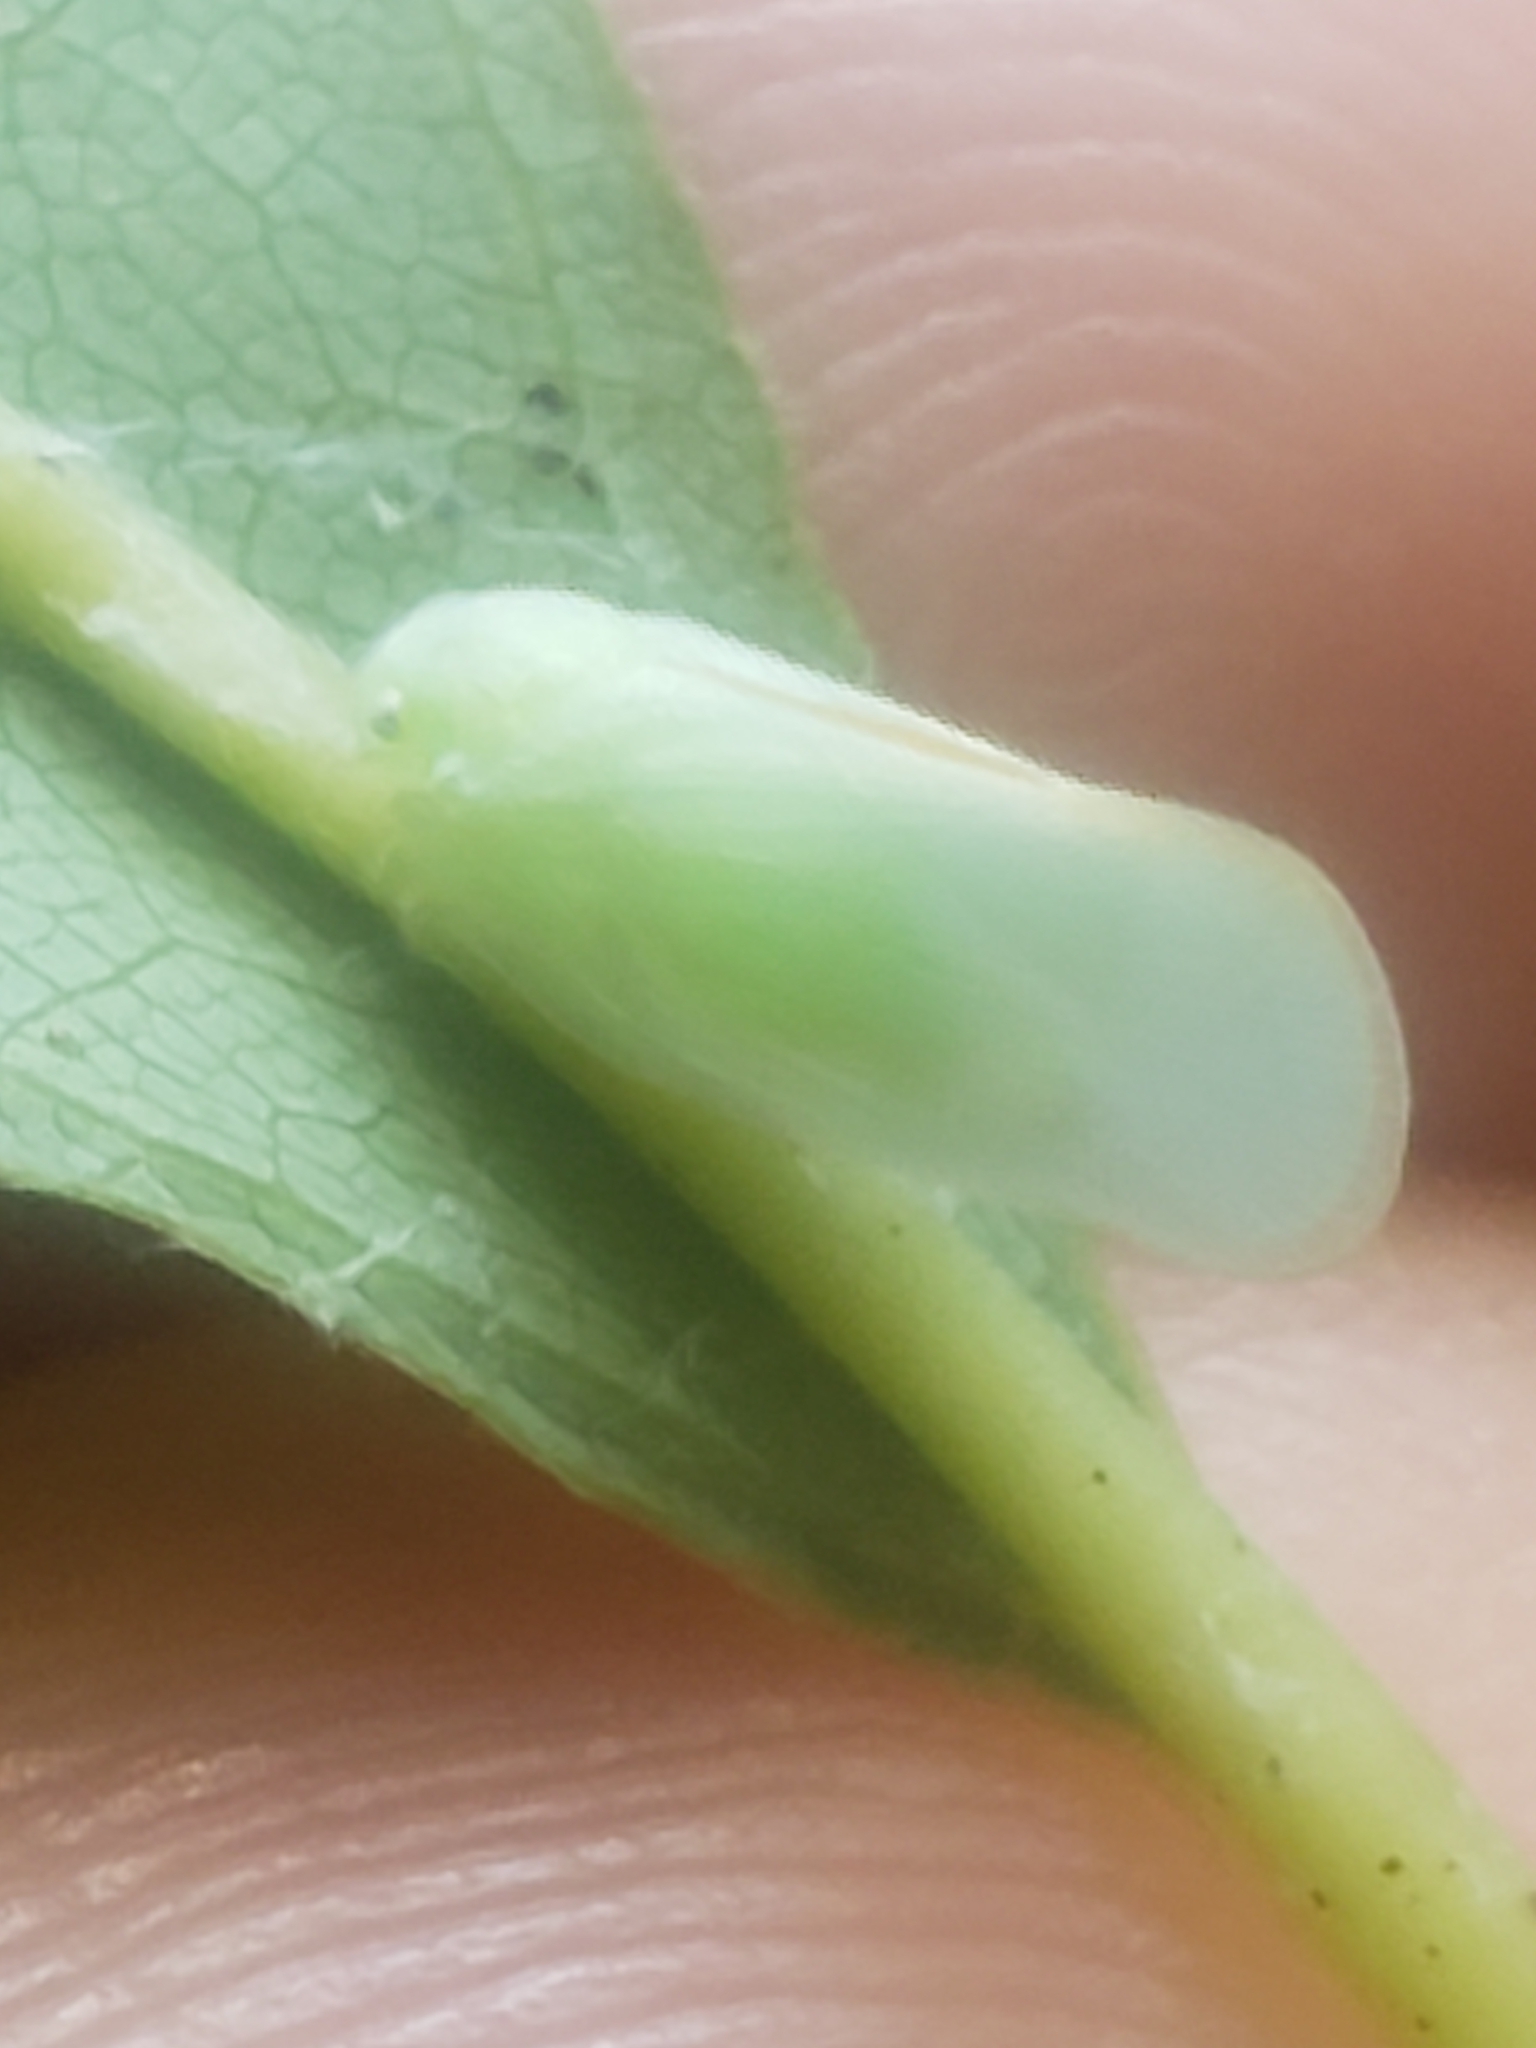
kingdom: Animalia
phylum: Arthropoda
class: Insecta
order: Hemiptera
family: Flatidae
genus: Ormenoides
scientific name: Ormenoides venusta
